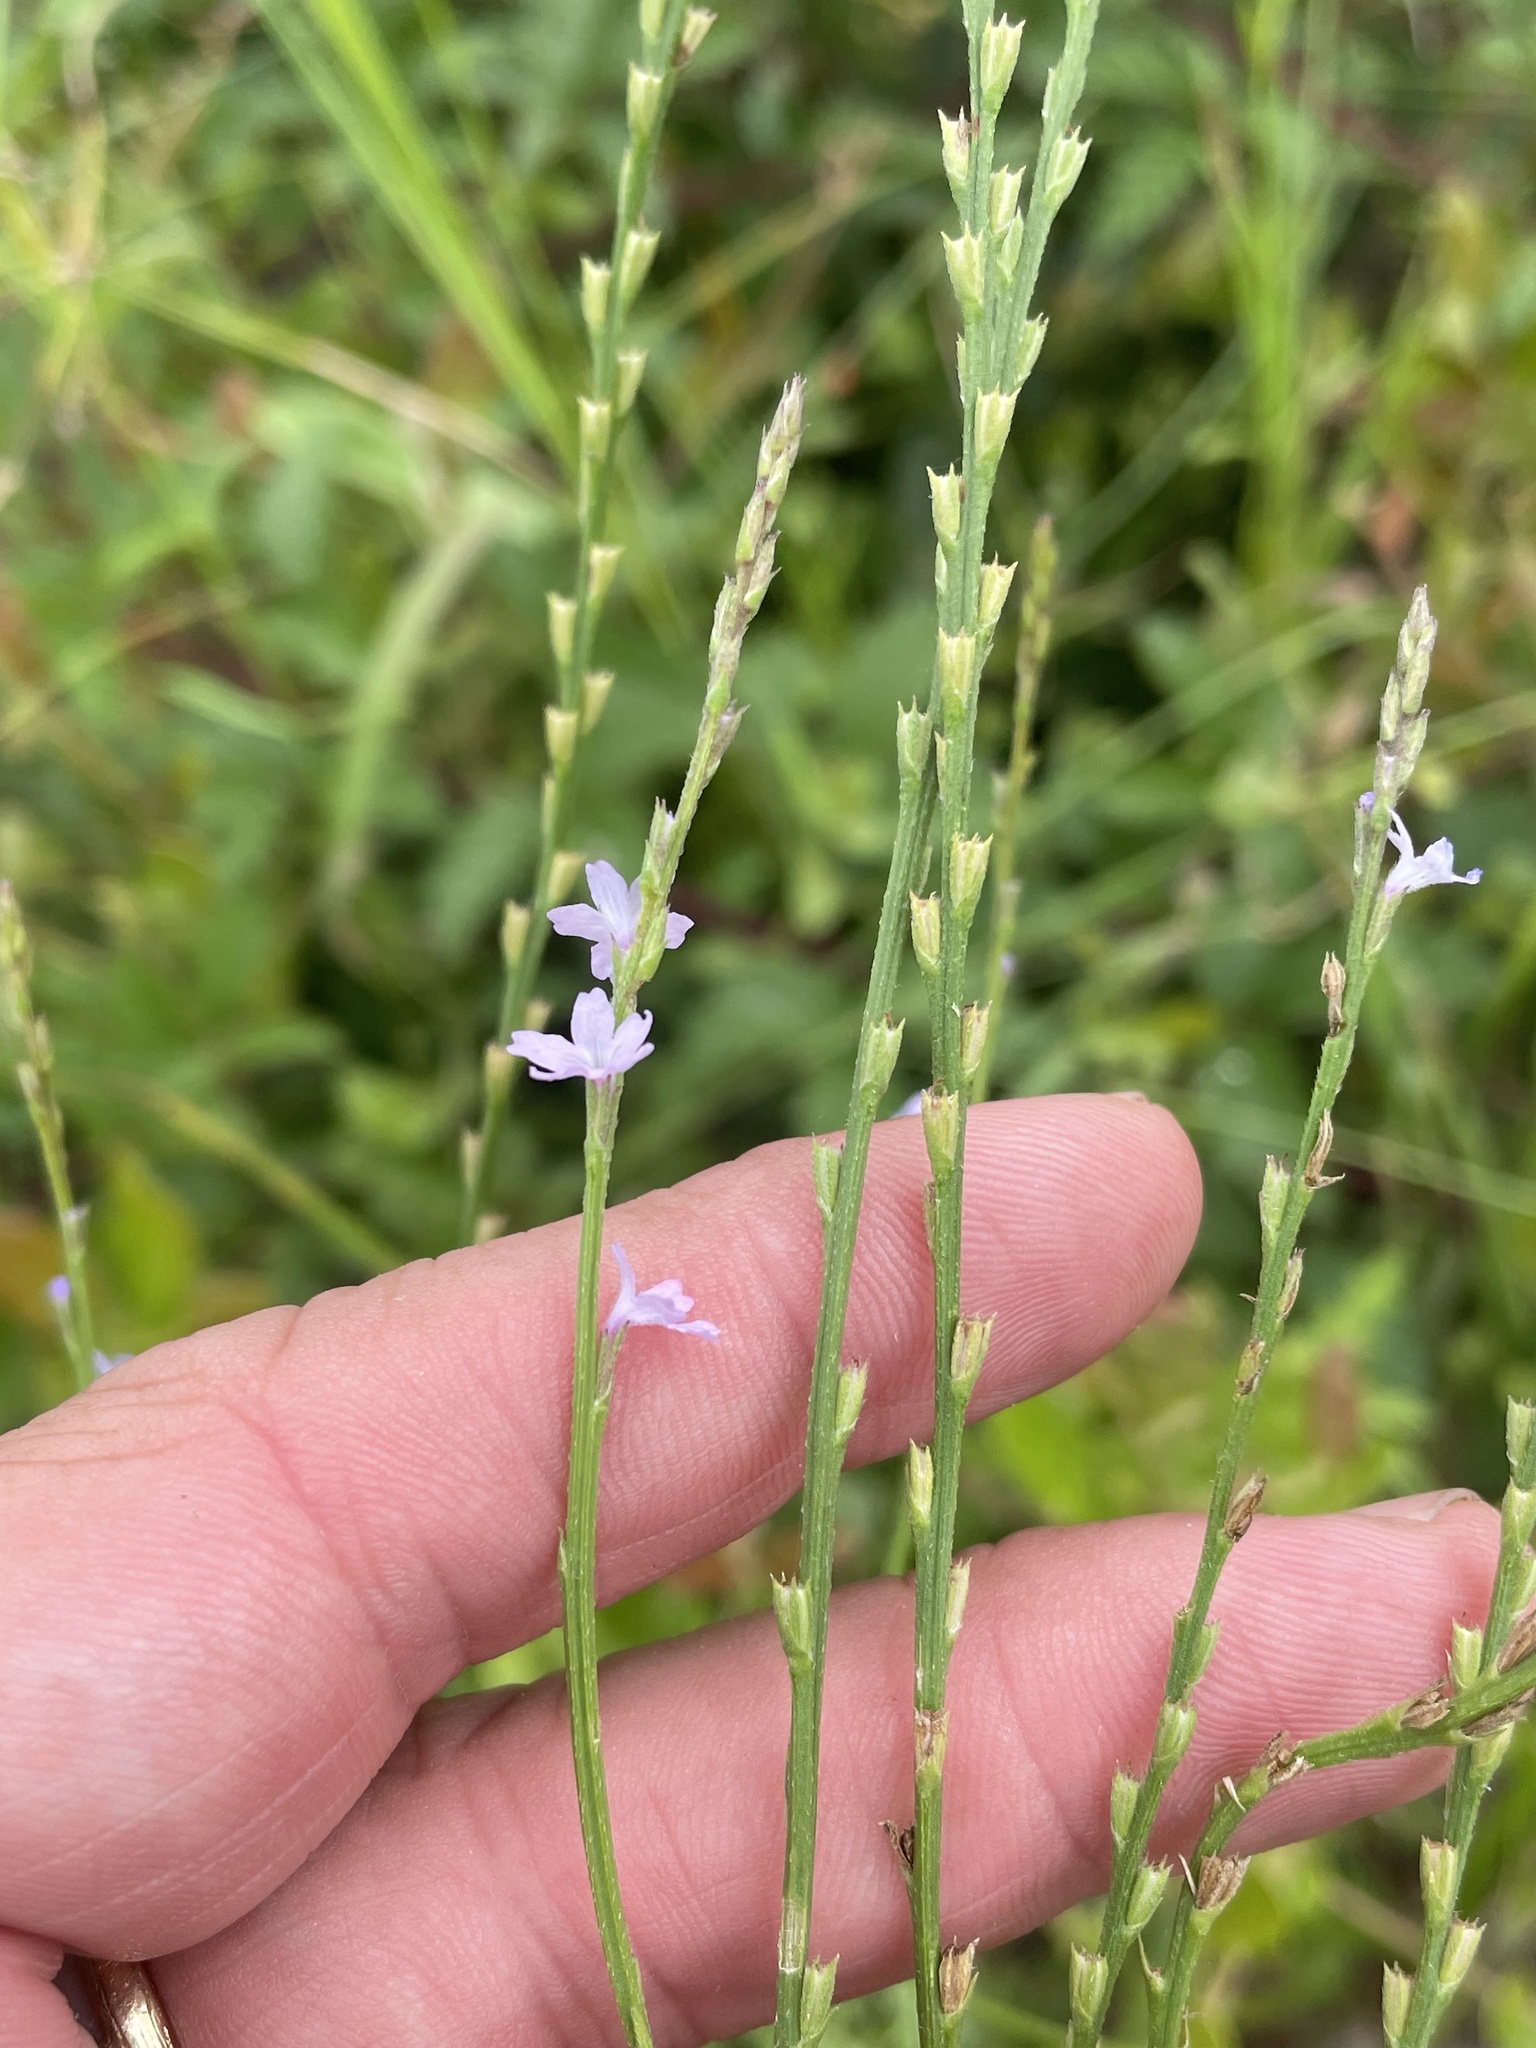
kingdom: Plantae
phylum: Tracheophyta
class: Magnoliopsida
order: Lamiales
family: Verbenaceae
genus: Verbena
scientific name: Verbena halei
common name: Texas vervain
